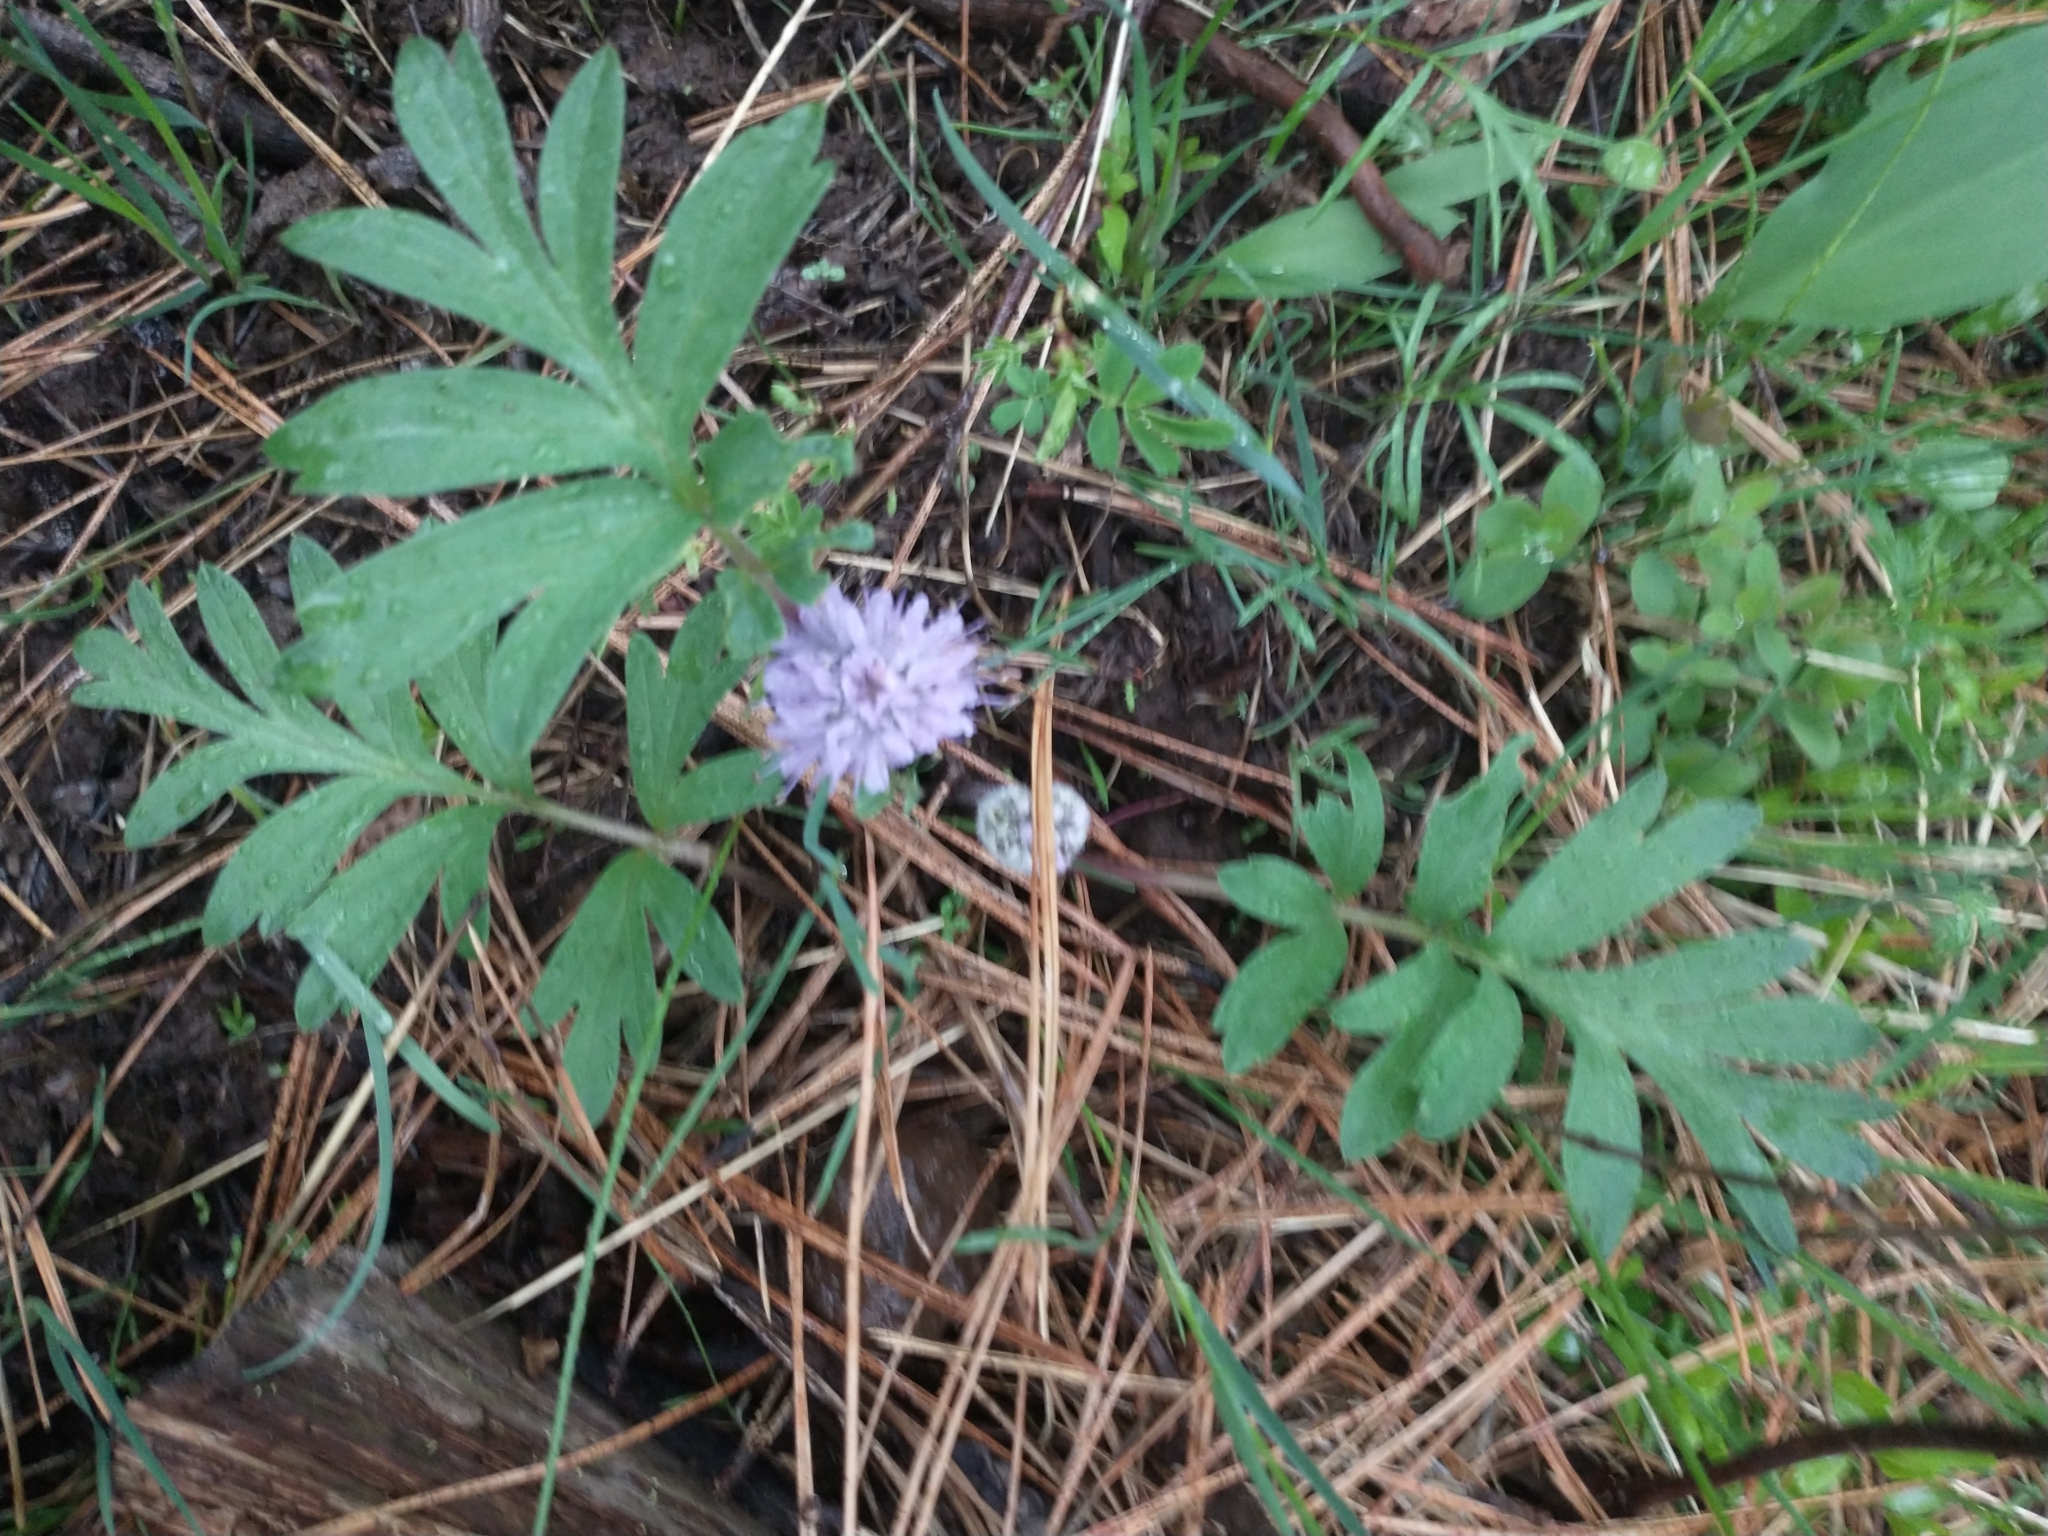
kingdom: Plantae
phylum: Tracheophyta
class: Magnoliopsida
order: Boraginales
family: Hydrophyllaceae
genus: Hydrophyllum
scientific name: Hydrophyllum capitatum
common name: Woollen-breeches
